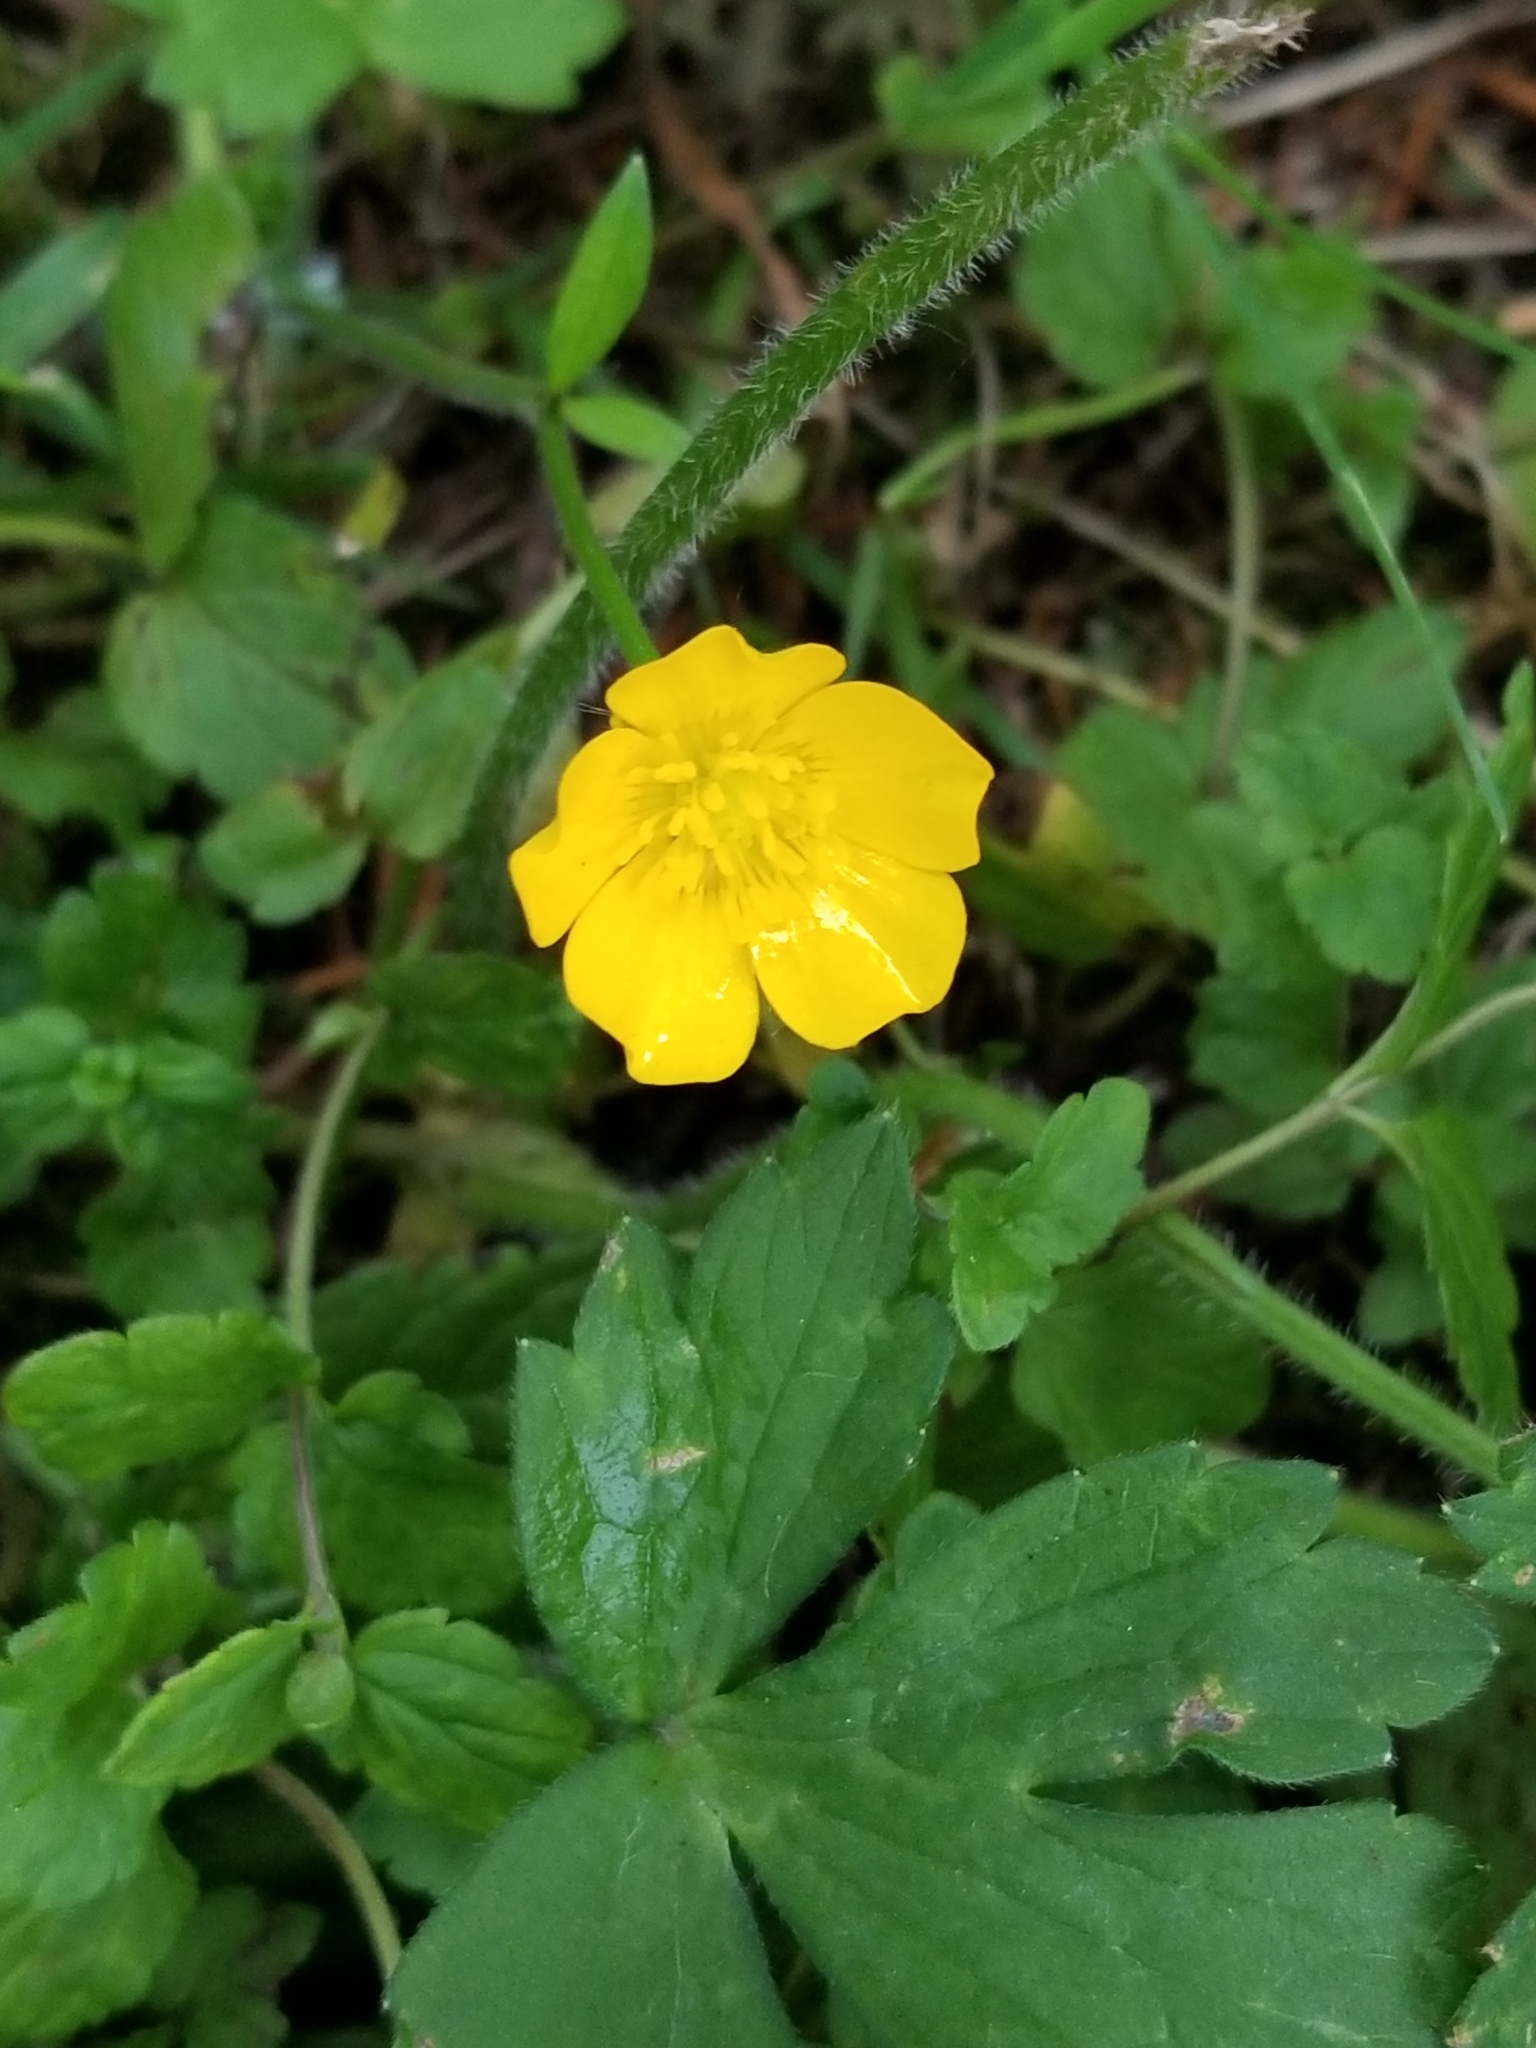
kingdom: Plantae
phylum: Tracheophyta
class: Magnoliopsida
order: Ranunculales
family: Ranunculaceae
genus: Ranunculus
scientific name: Ranunculus repens
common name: Creeping buttercup
